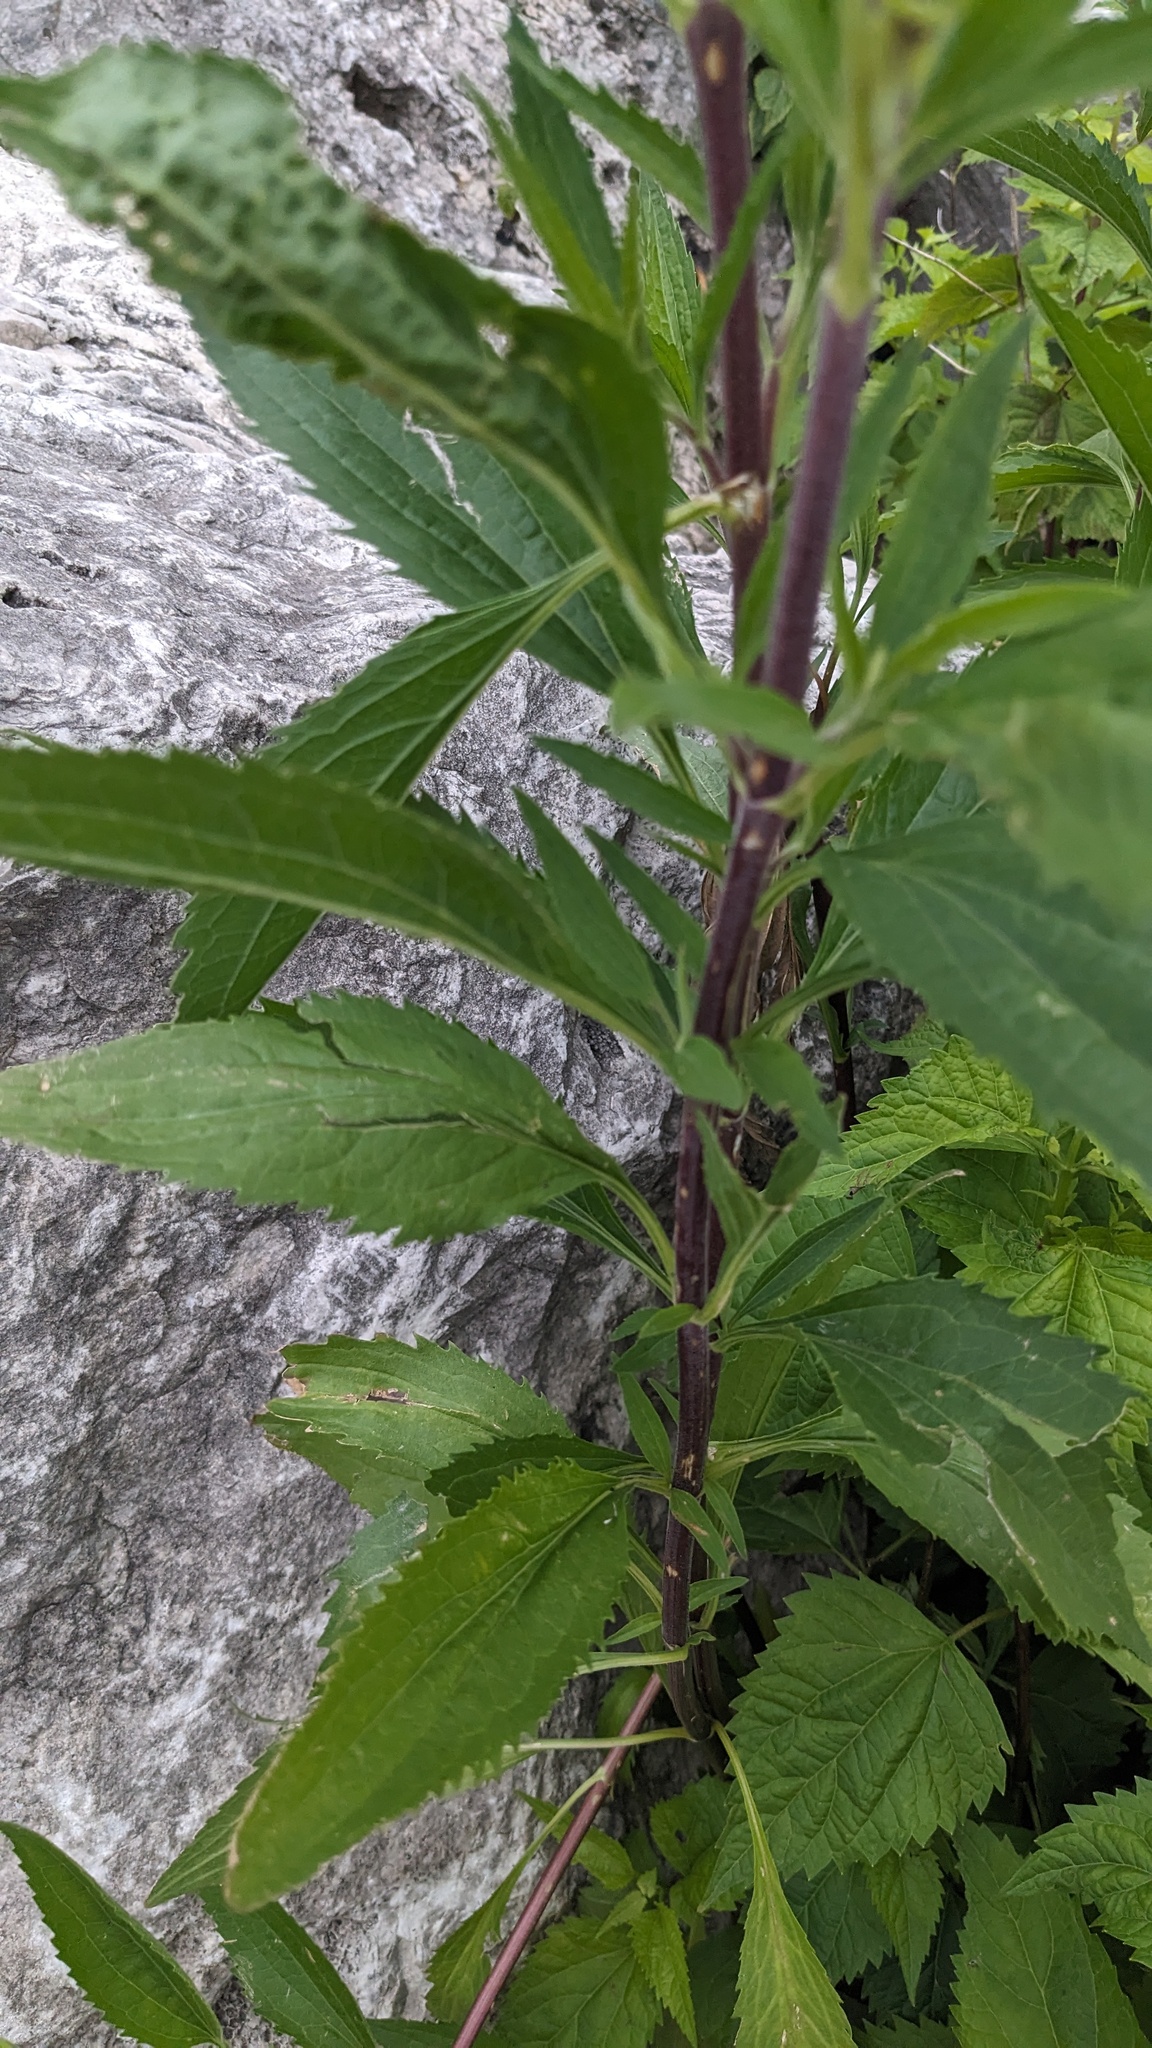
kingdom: Plantae
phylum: Tracheophyta
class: Magnoliopsida
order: Asterales
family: Asteraceae
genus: Eupatorium
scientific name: Eupatorium serotinum
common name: Late boneset
